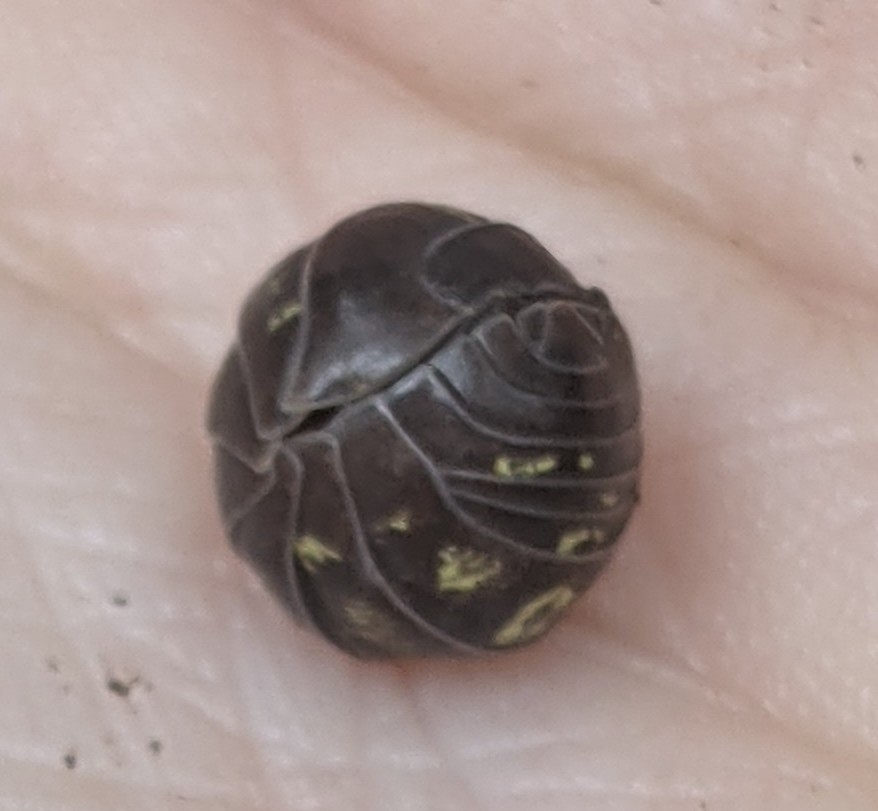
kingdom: Animalia
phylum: Arthropoda
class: Malacostraca
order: Isopoda
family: Armadillidiidae
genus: Armadillidium
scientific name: Armadillidium vulgare
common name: Common pill woodlouse
